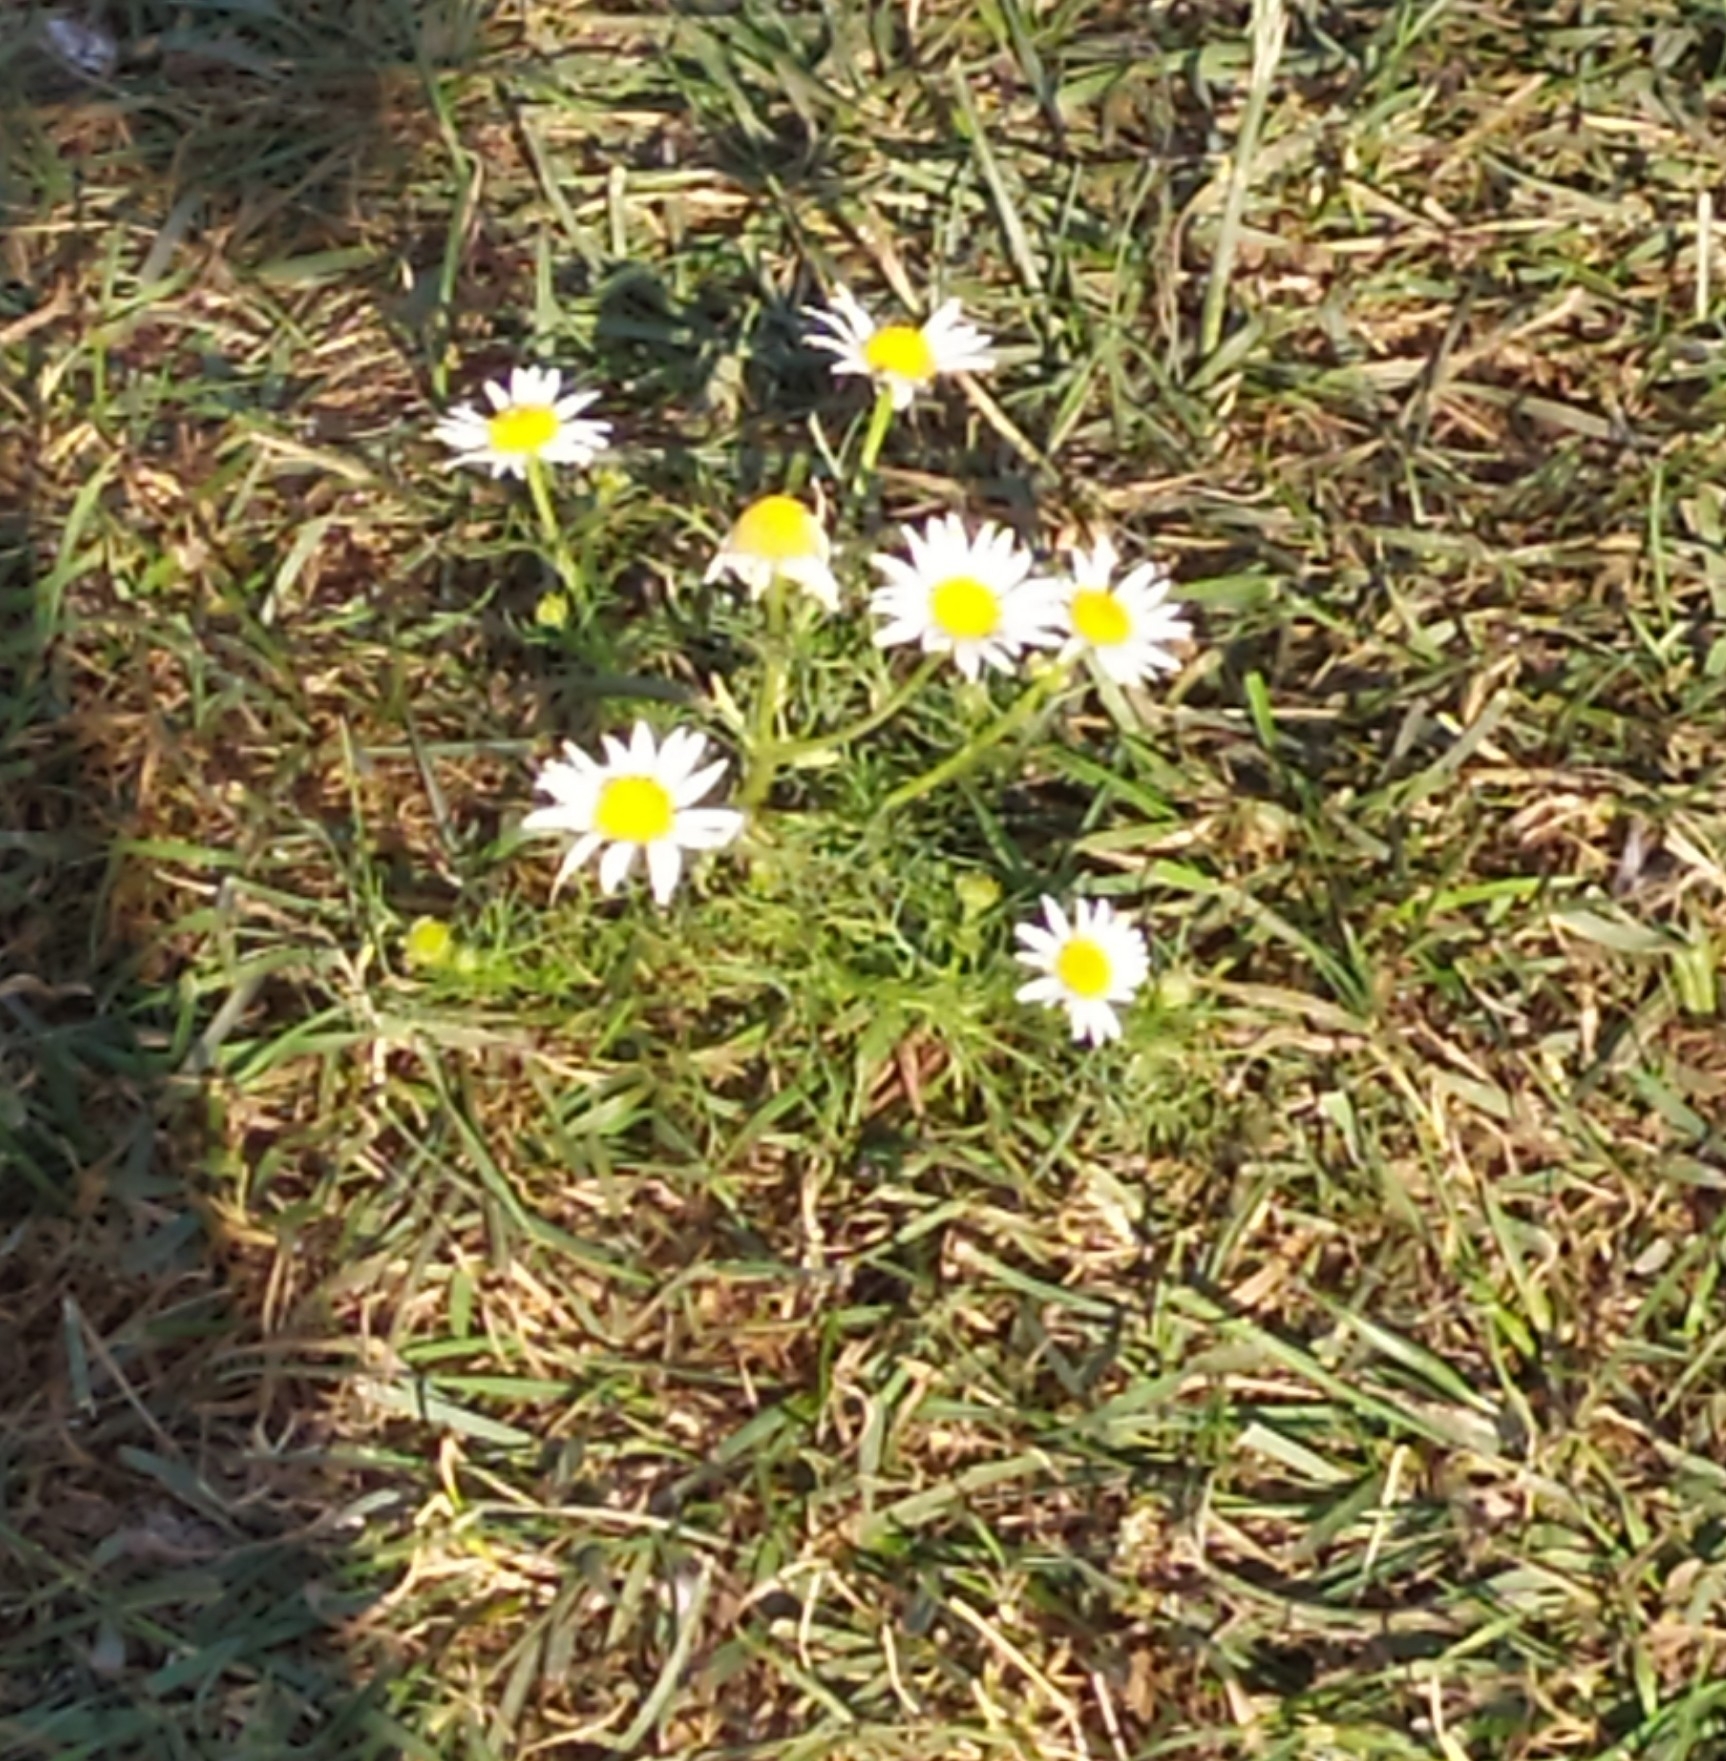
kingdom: Plantae
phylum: Tracheophyta
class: Magnoliopsida
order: Asterales
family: Asteraceae
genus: Tripleurospermum
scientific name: Tripleurospermum inodorum
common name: Scentless mayweed
